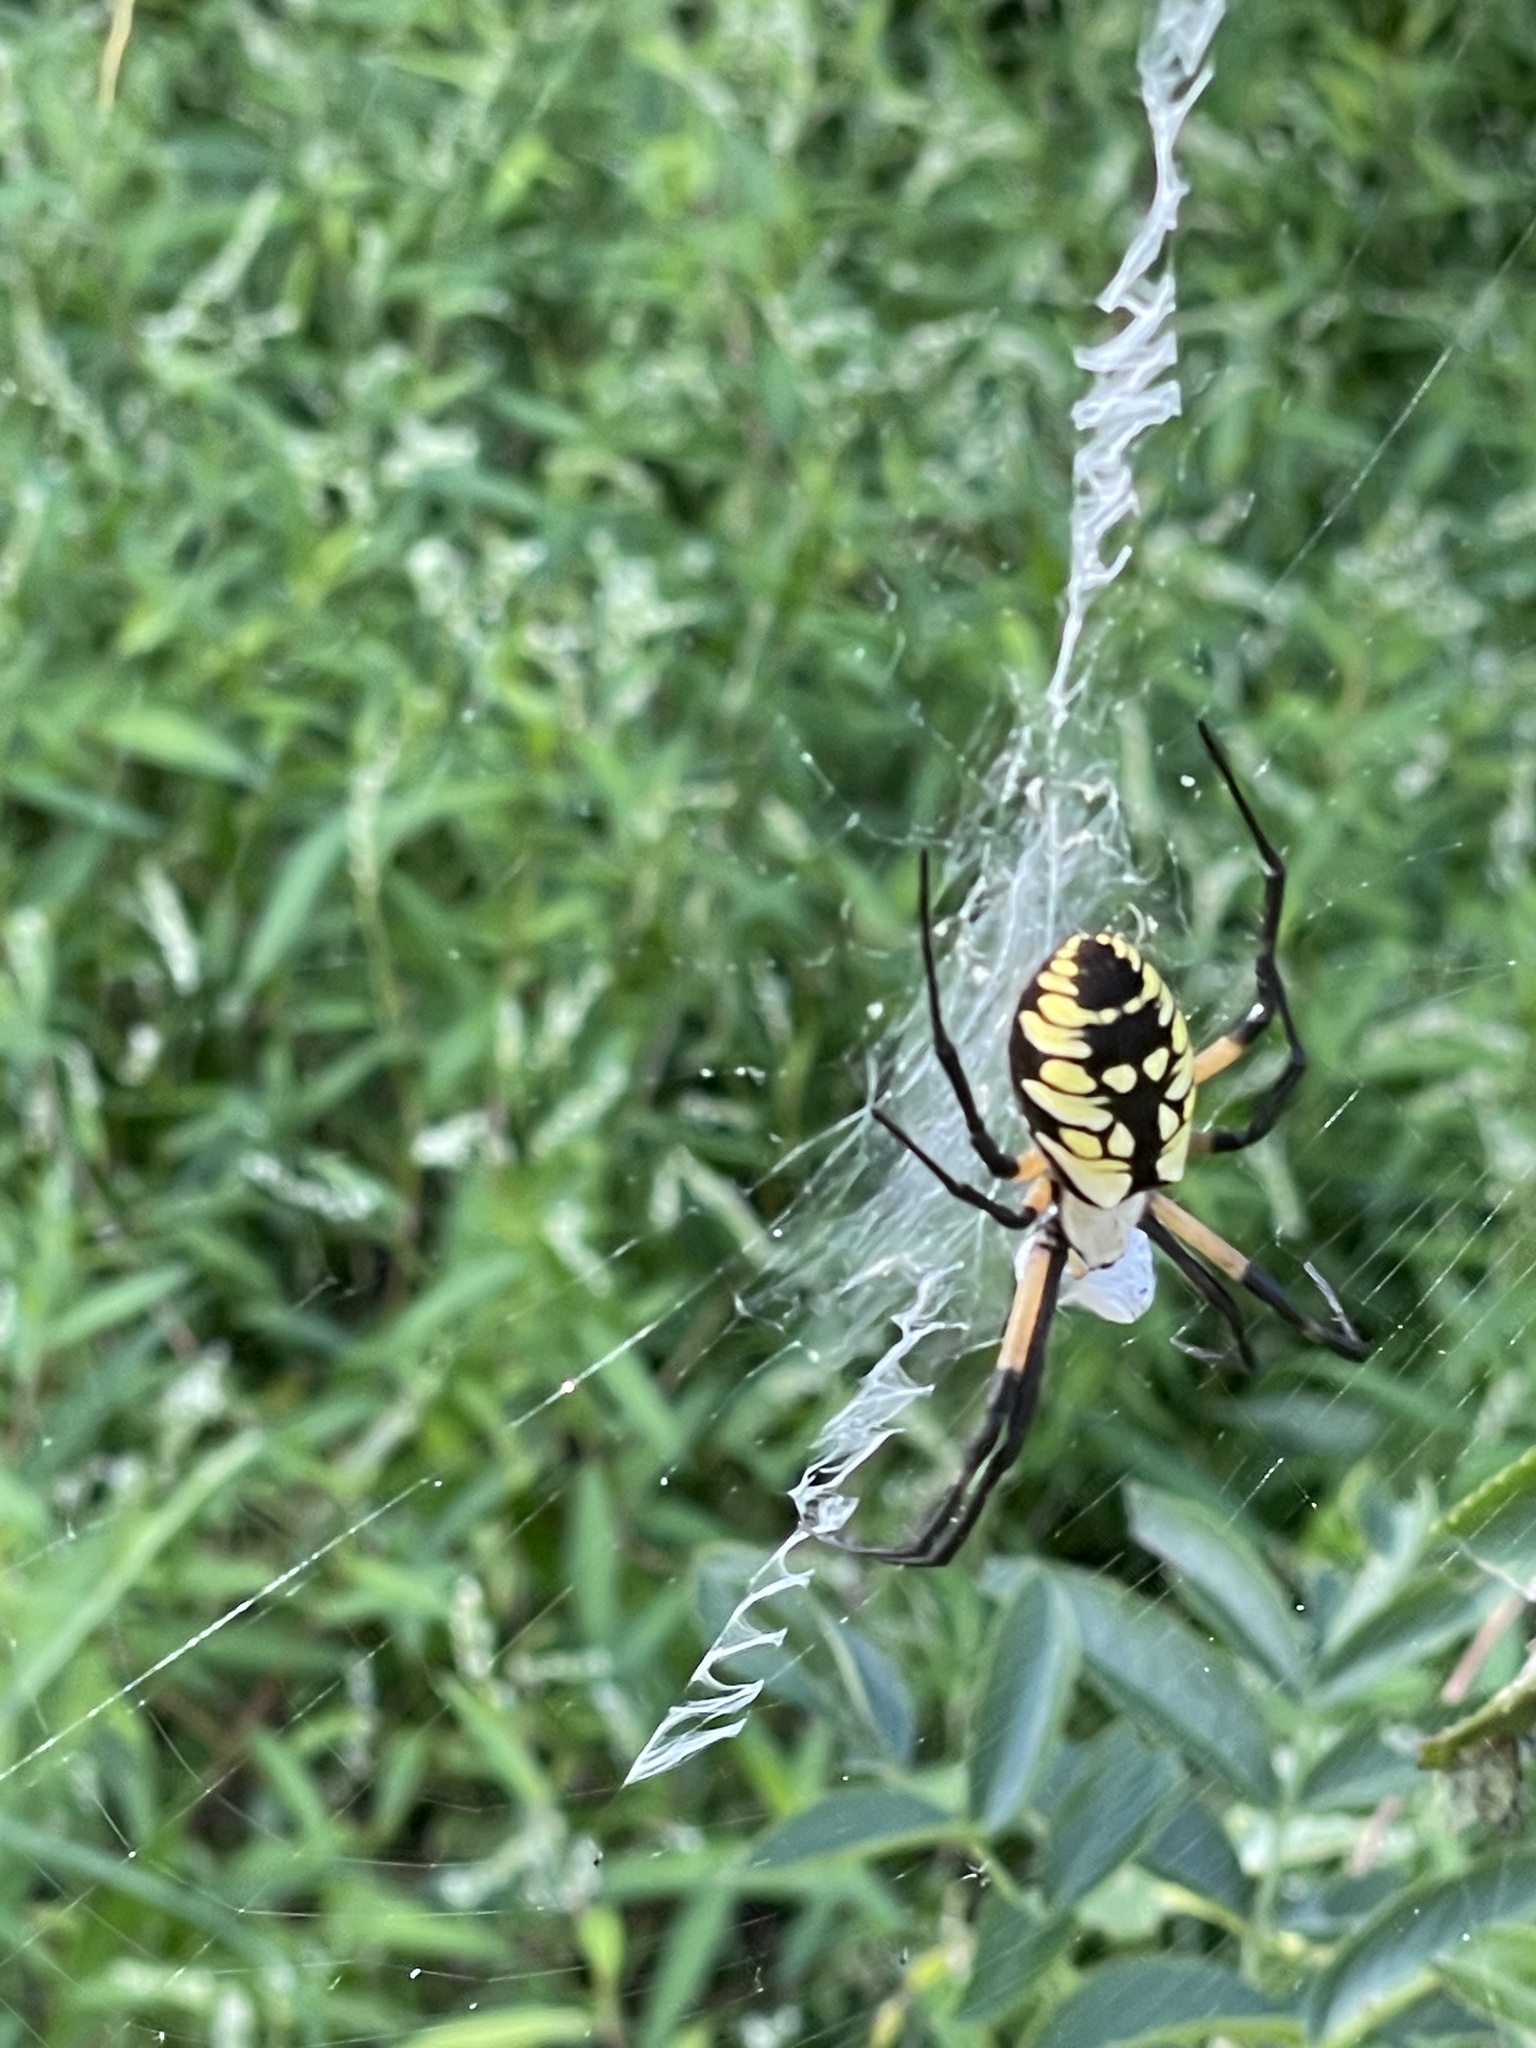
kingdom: Animalia
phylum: Arthropoda
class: Arachnida
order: Araneae
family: Araneidae
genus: Argiope
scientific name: Argiope aurantia
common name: Orb weavers
